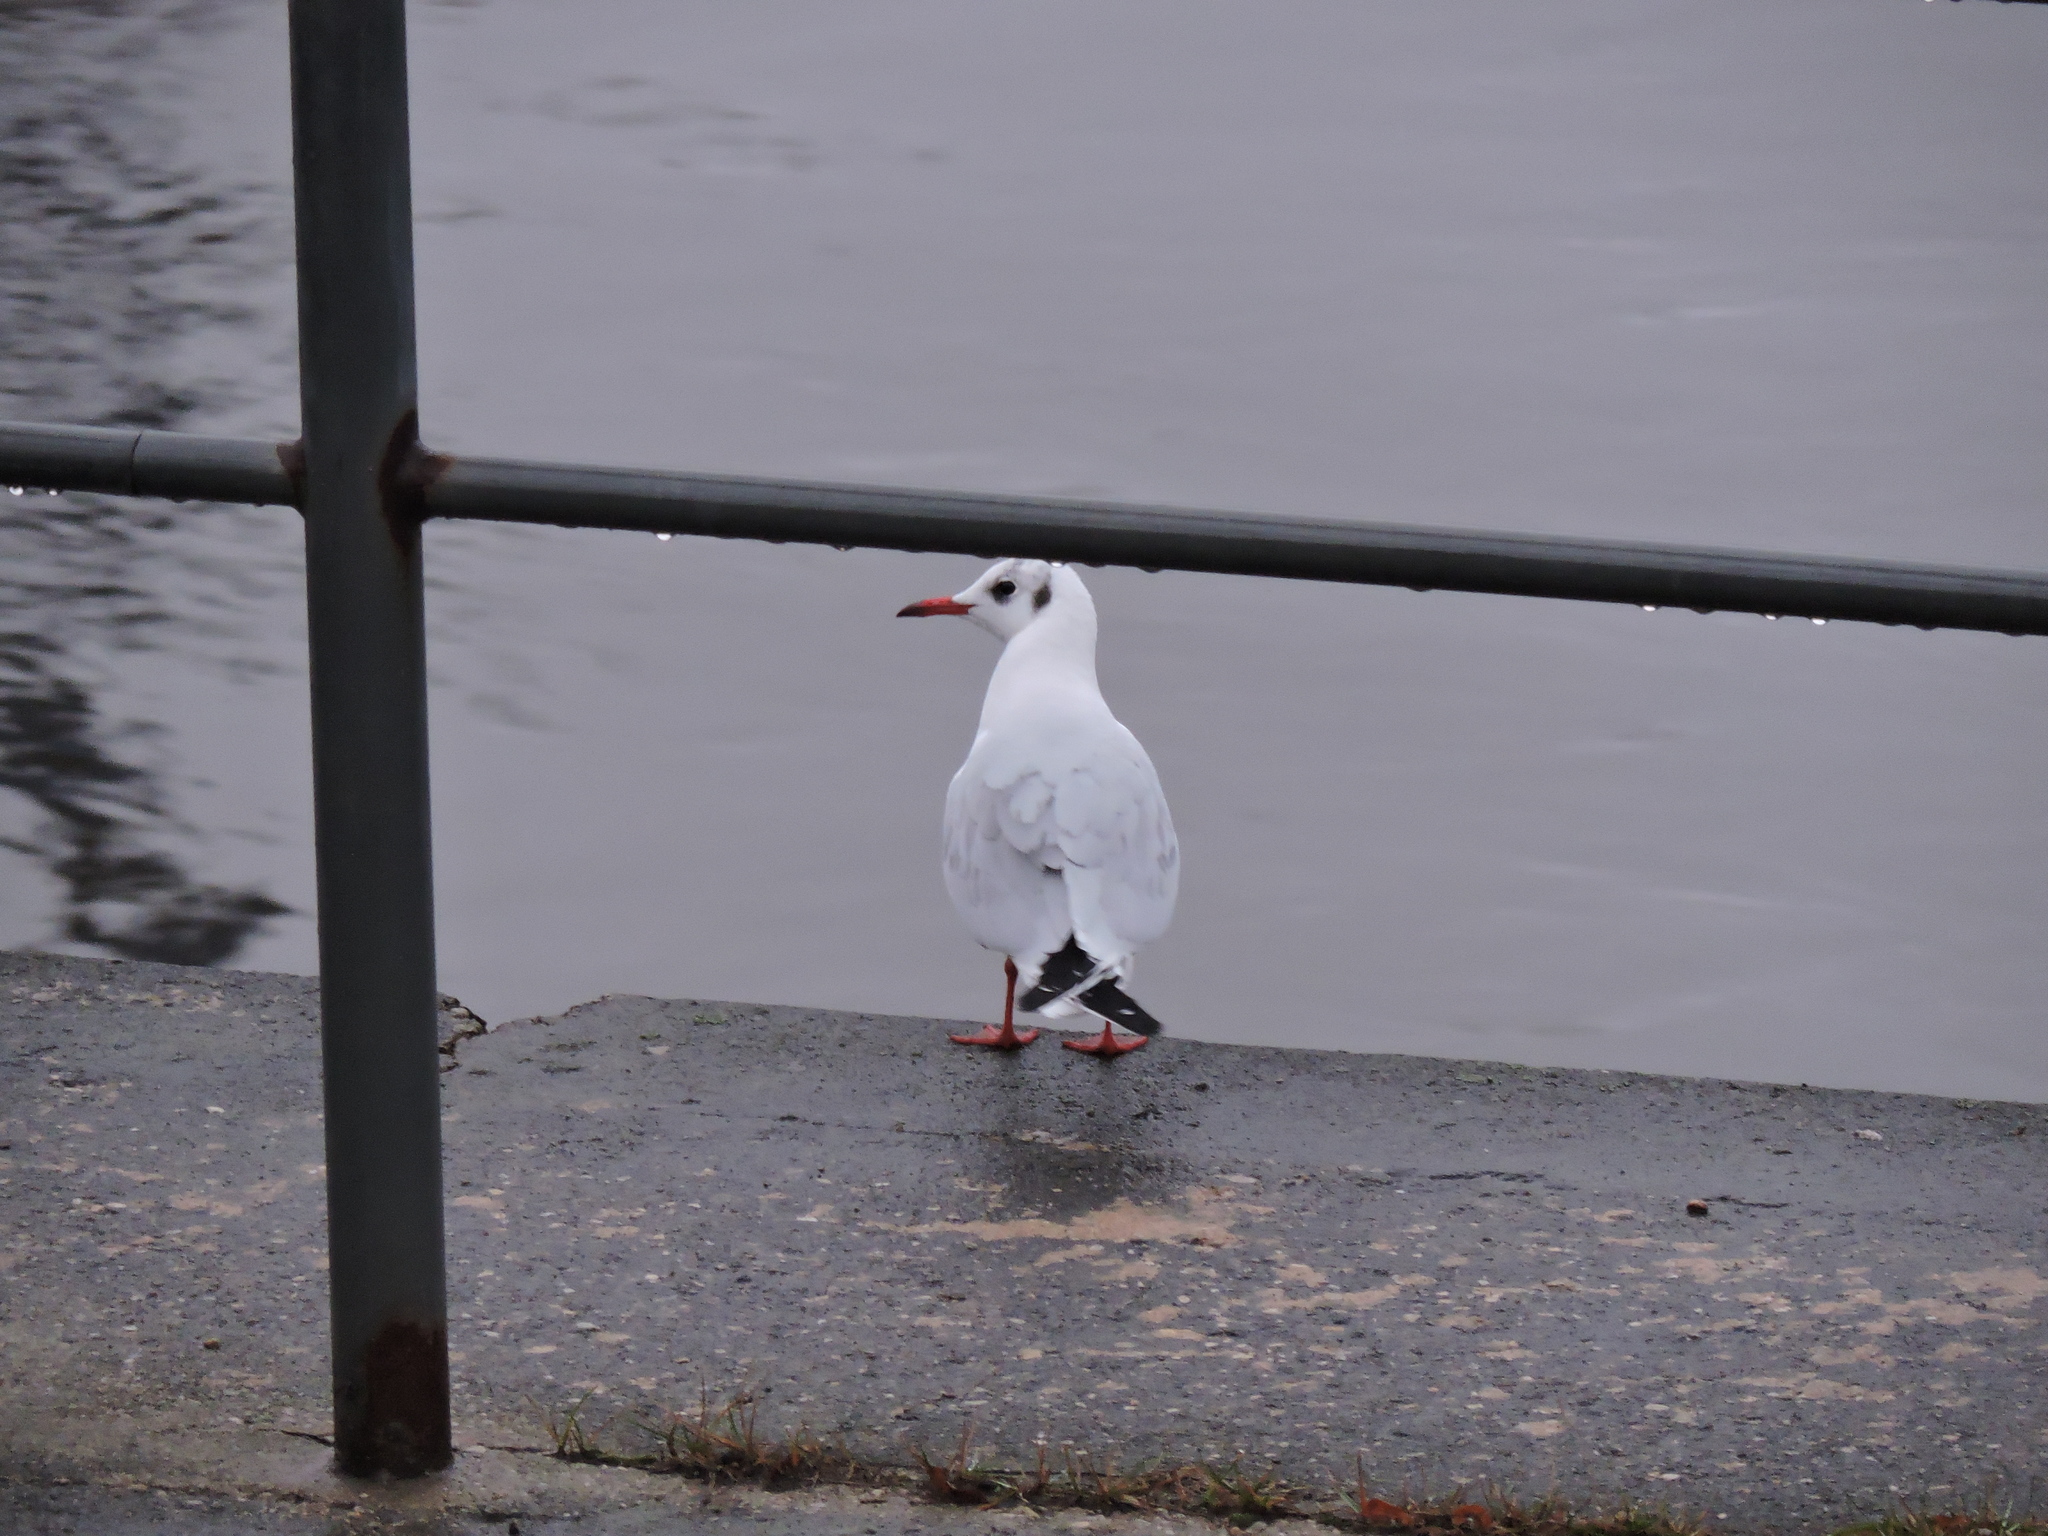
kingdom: Animalia
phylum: Chordata
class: Aves
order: Charadriiformes
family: Laridae
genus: Chroicocephalus
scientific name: Chroicocephalus ridibundus
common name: Black-headed gull
